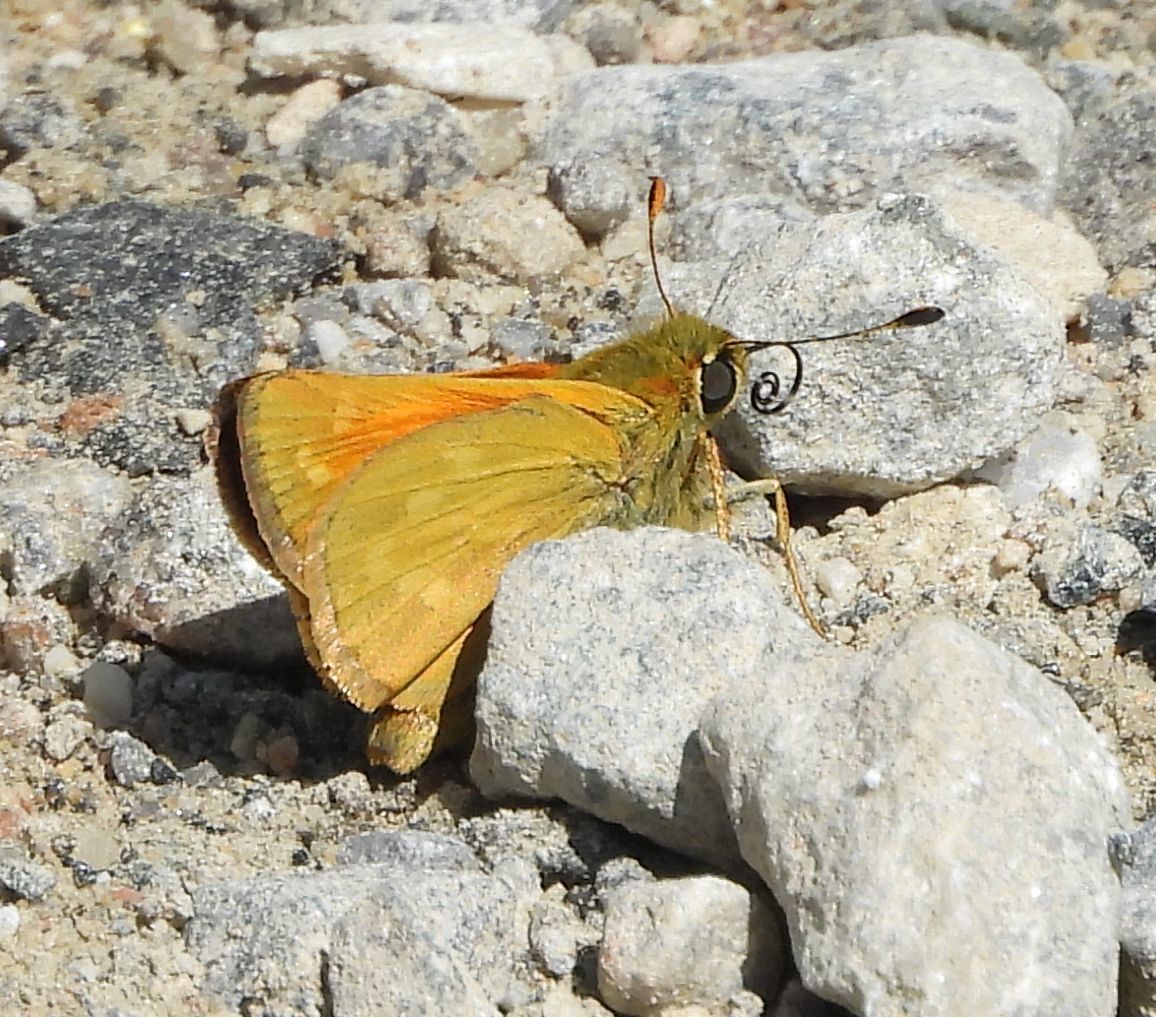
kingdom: Animalia
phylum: Arthropoda
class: Insecta
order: Lepidoptera
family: Hesperiidae
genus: Hesperia
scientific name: Hesperia sassacus
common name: Indian skipper
